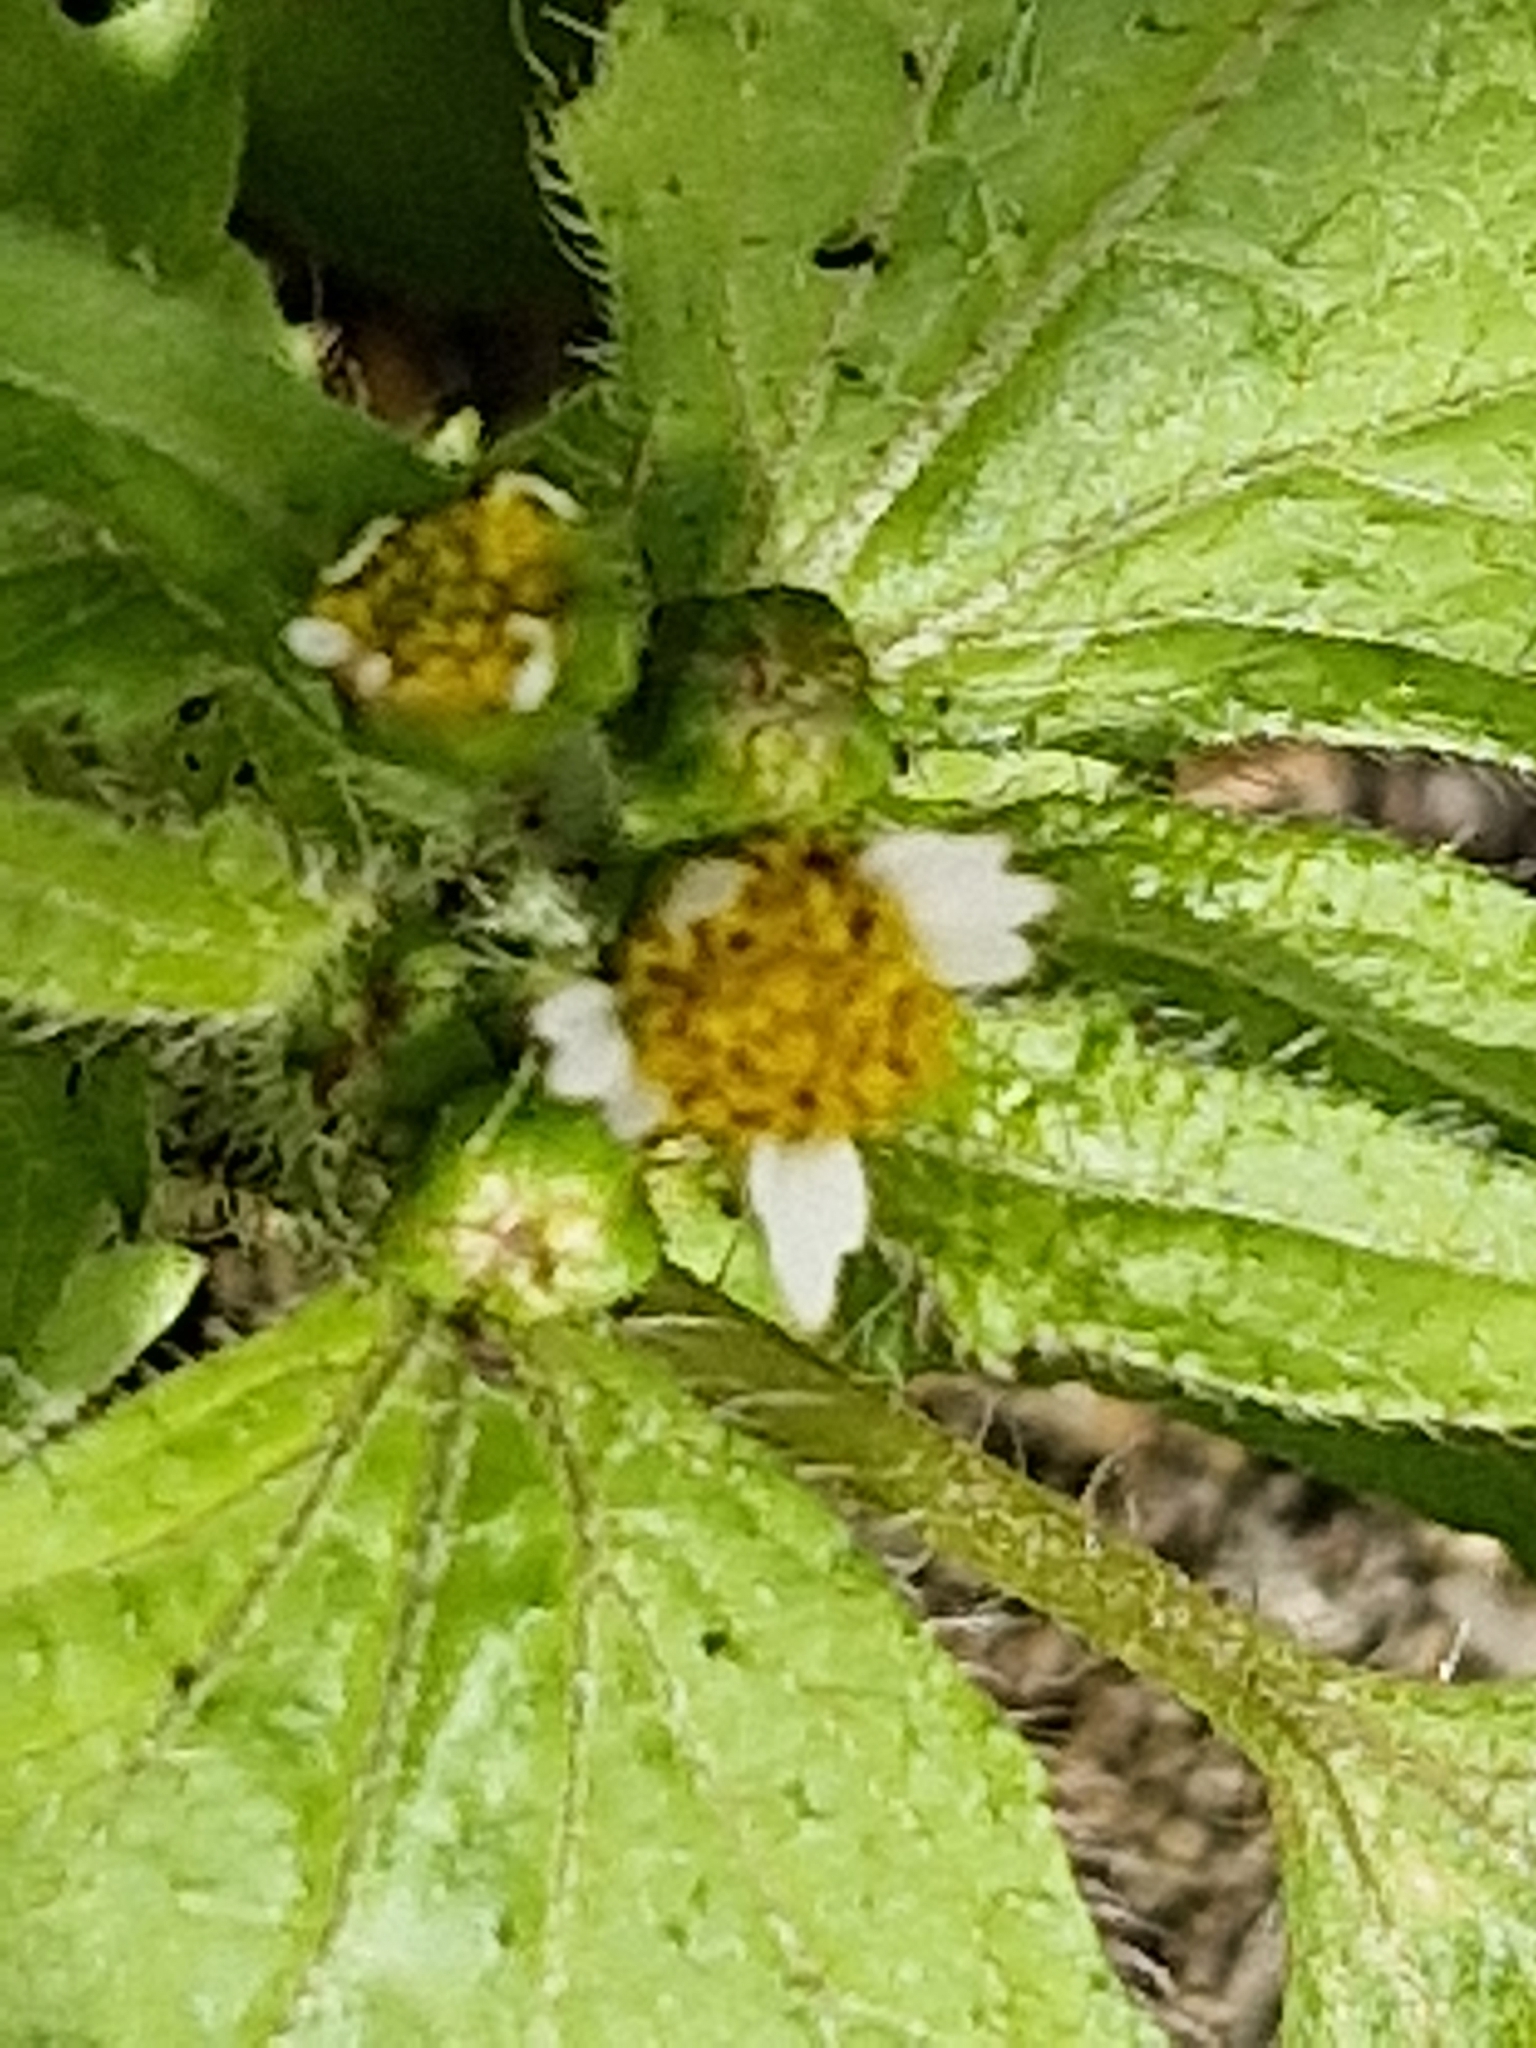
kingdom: Plantae
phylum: Tracheophyta
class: Magnoliopsida
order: Asterales
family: Asteraceae
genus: Galinsoga
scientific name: Galinsoga quadriradiata
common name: Shaggy soldier
